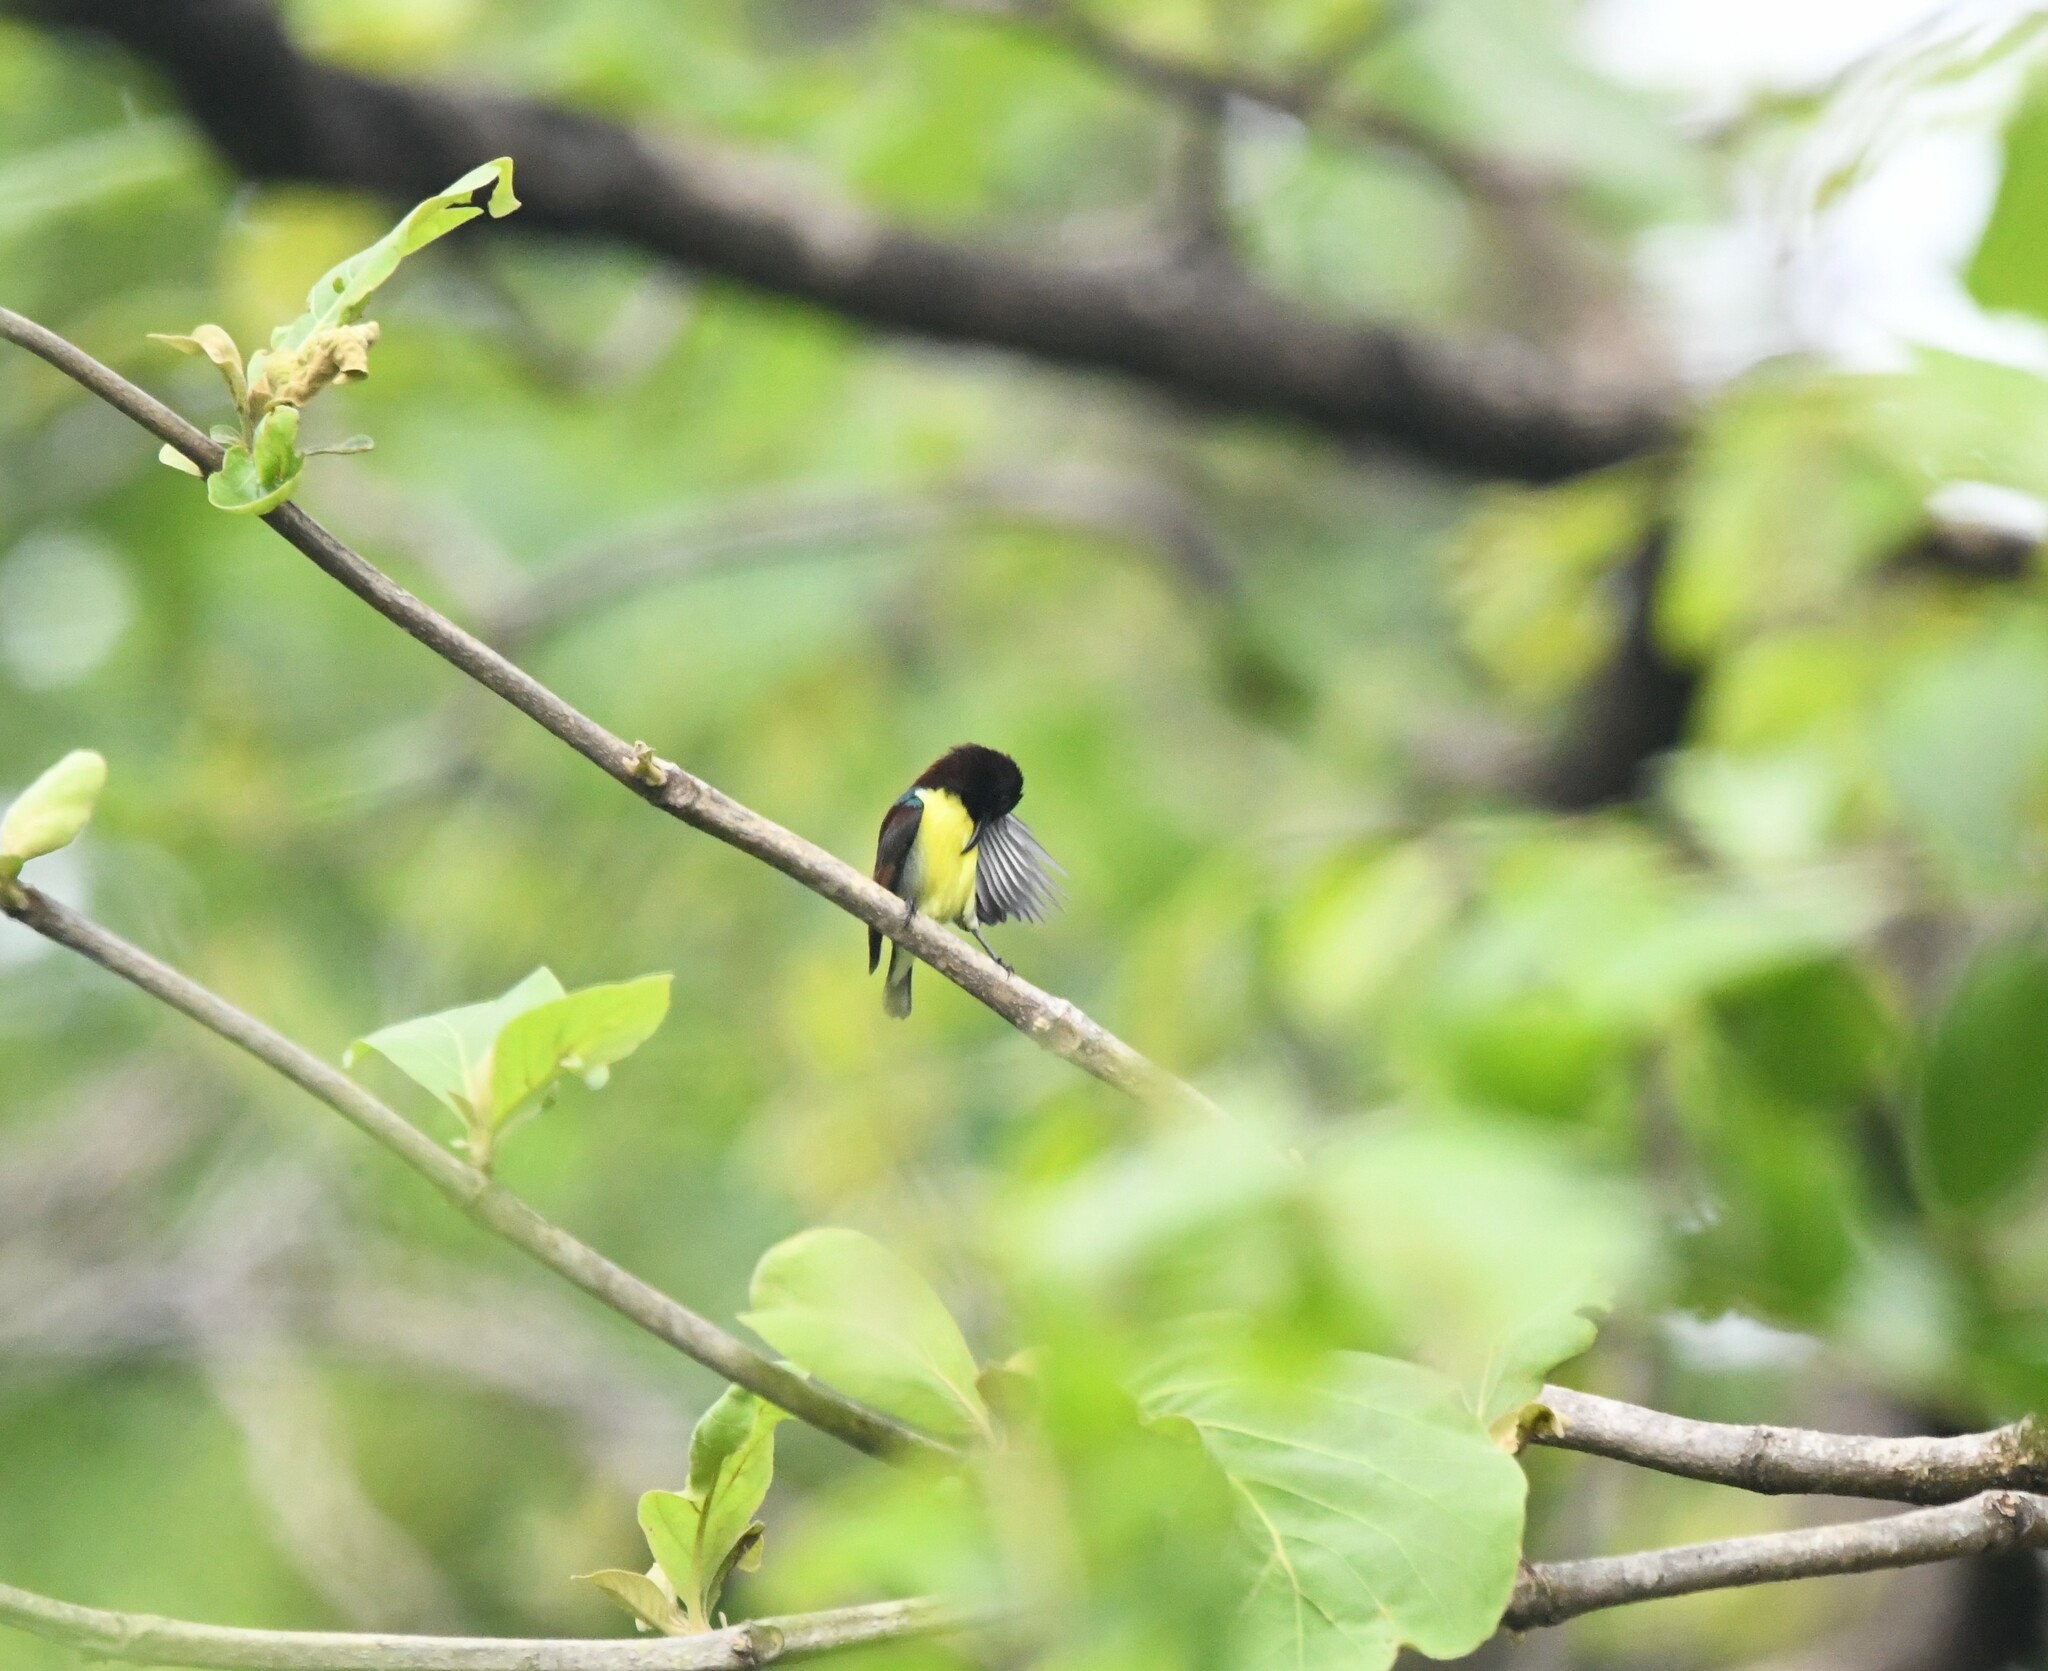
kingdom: Animalia
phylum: Chordata
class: Aves
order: Passeriformes
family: Nectariniidae
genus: Leptocoma
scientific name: Leptocoma zeylonica
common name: Purple-rumped sunbird
